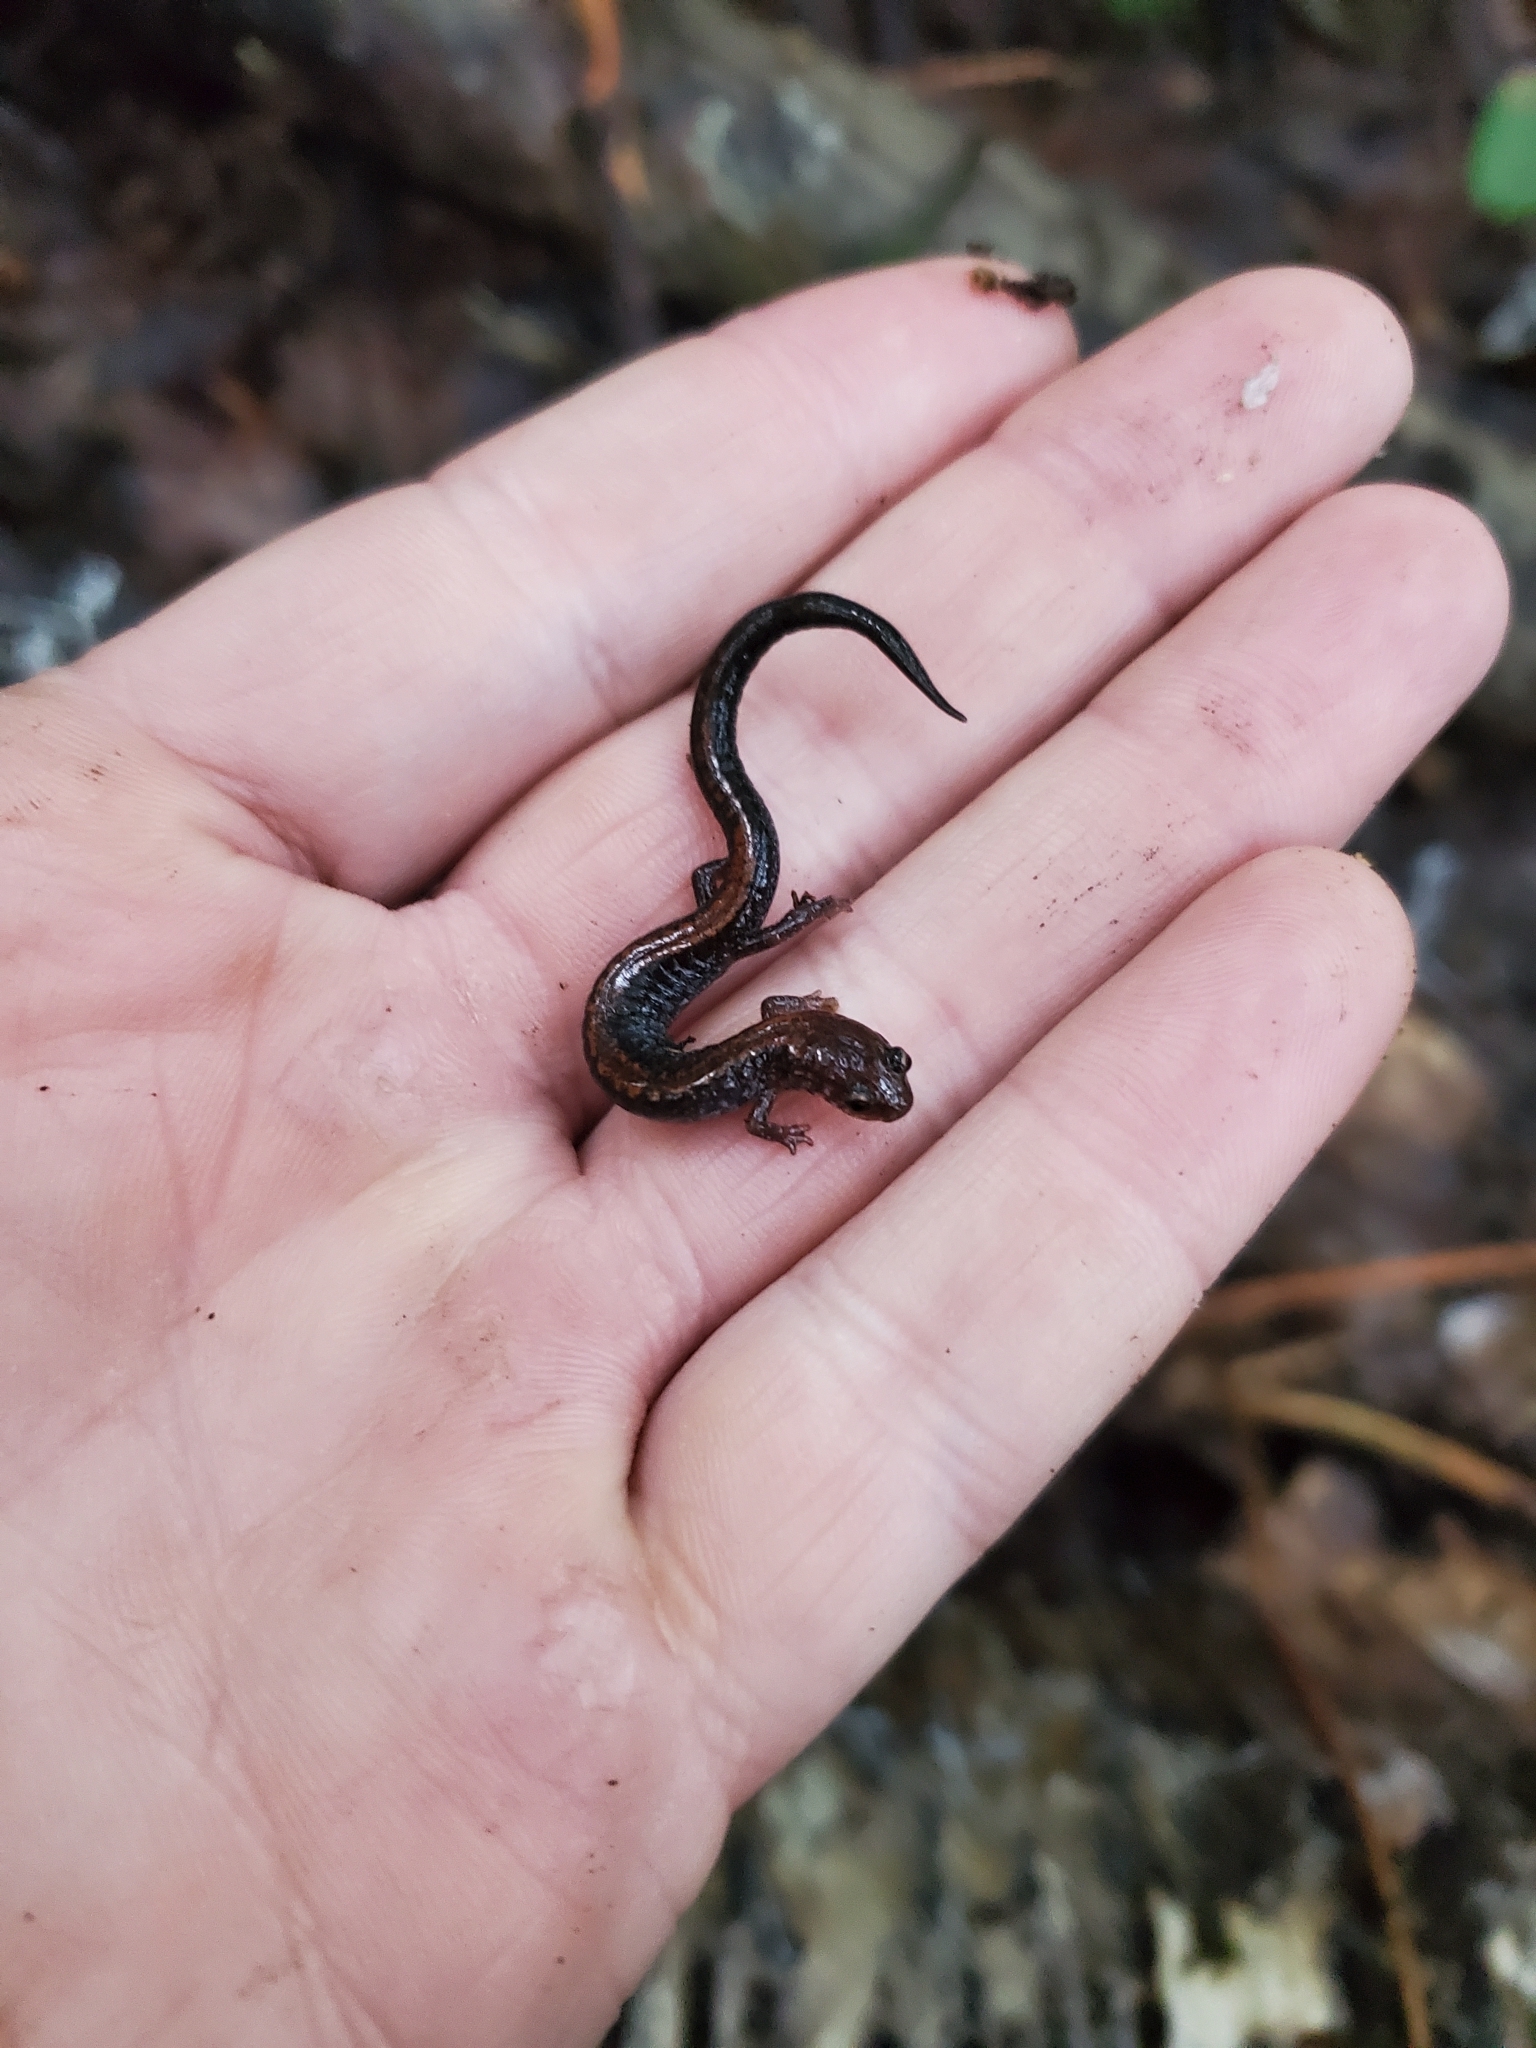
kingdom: Animalia
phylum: Chordata
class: Amphibia
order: Caudata
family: Plethodontidae
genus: Plethodon
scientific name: Plethodon cinereus
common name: Redback salamander
